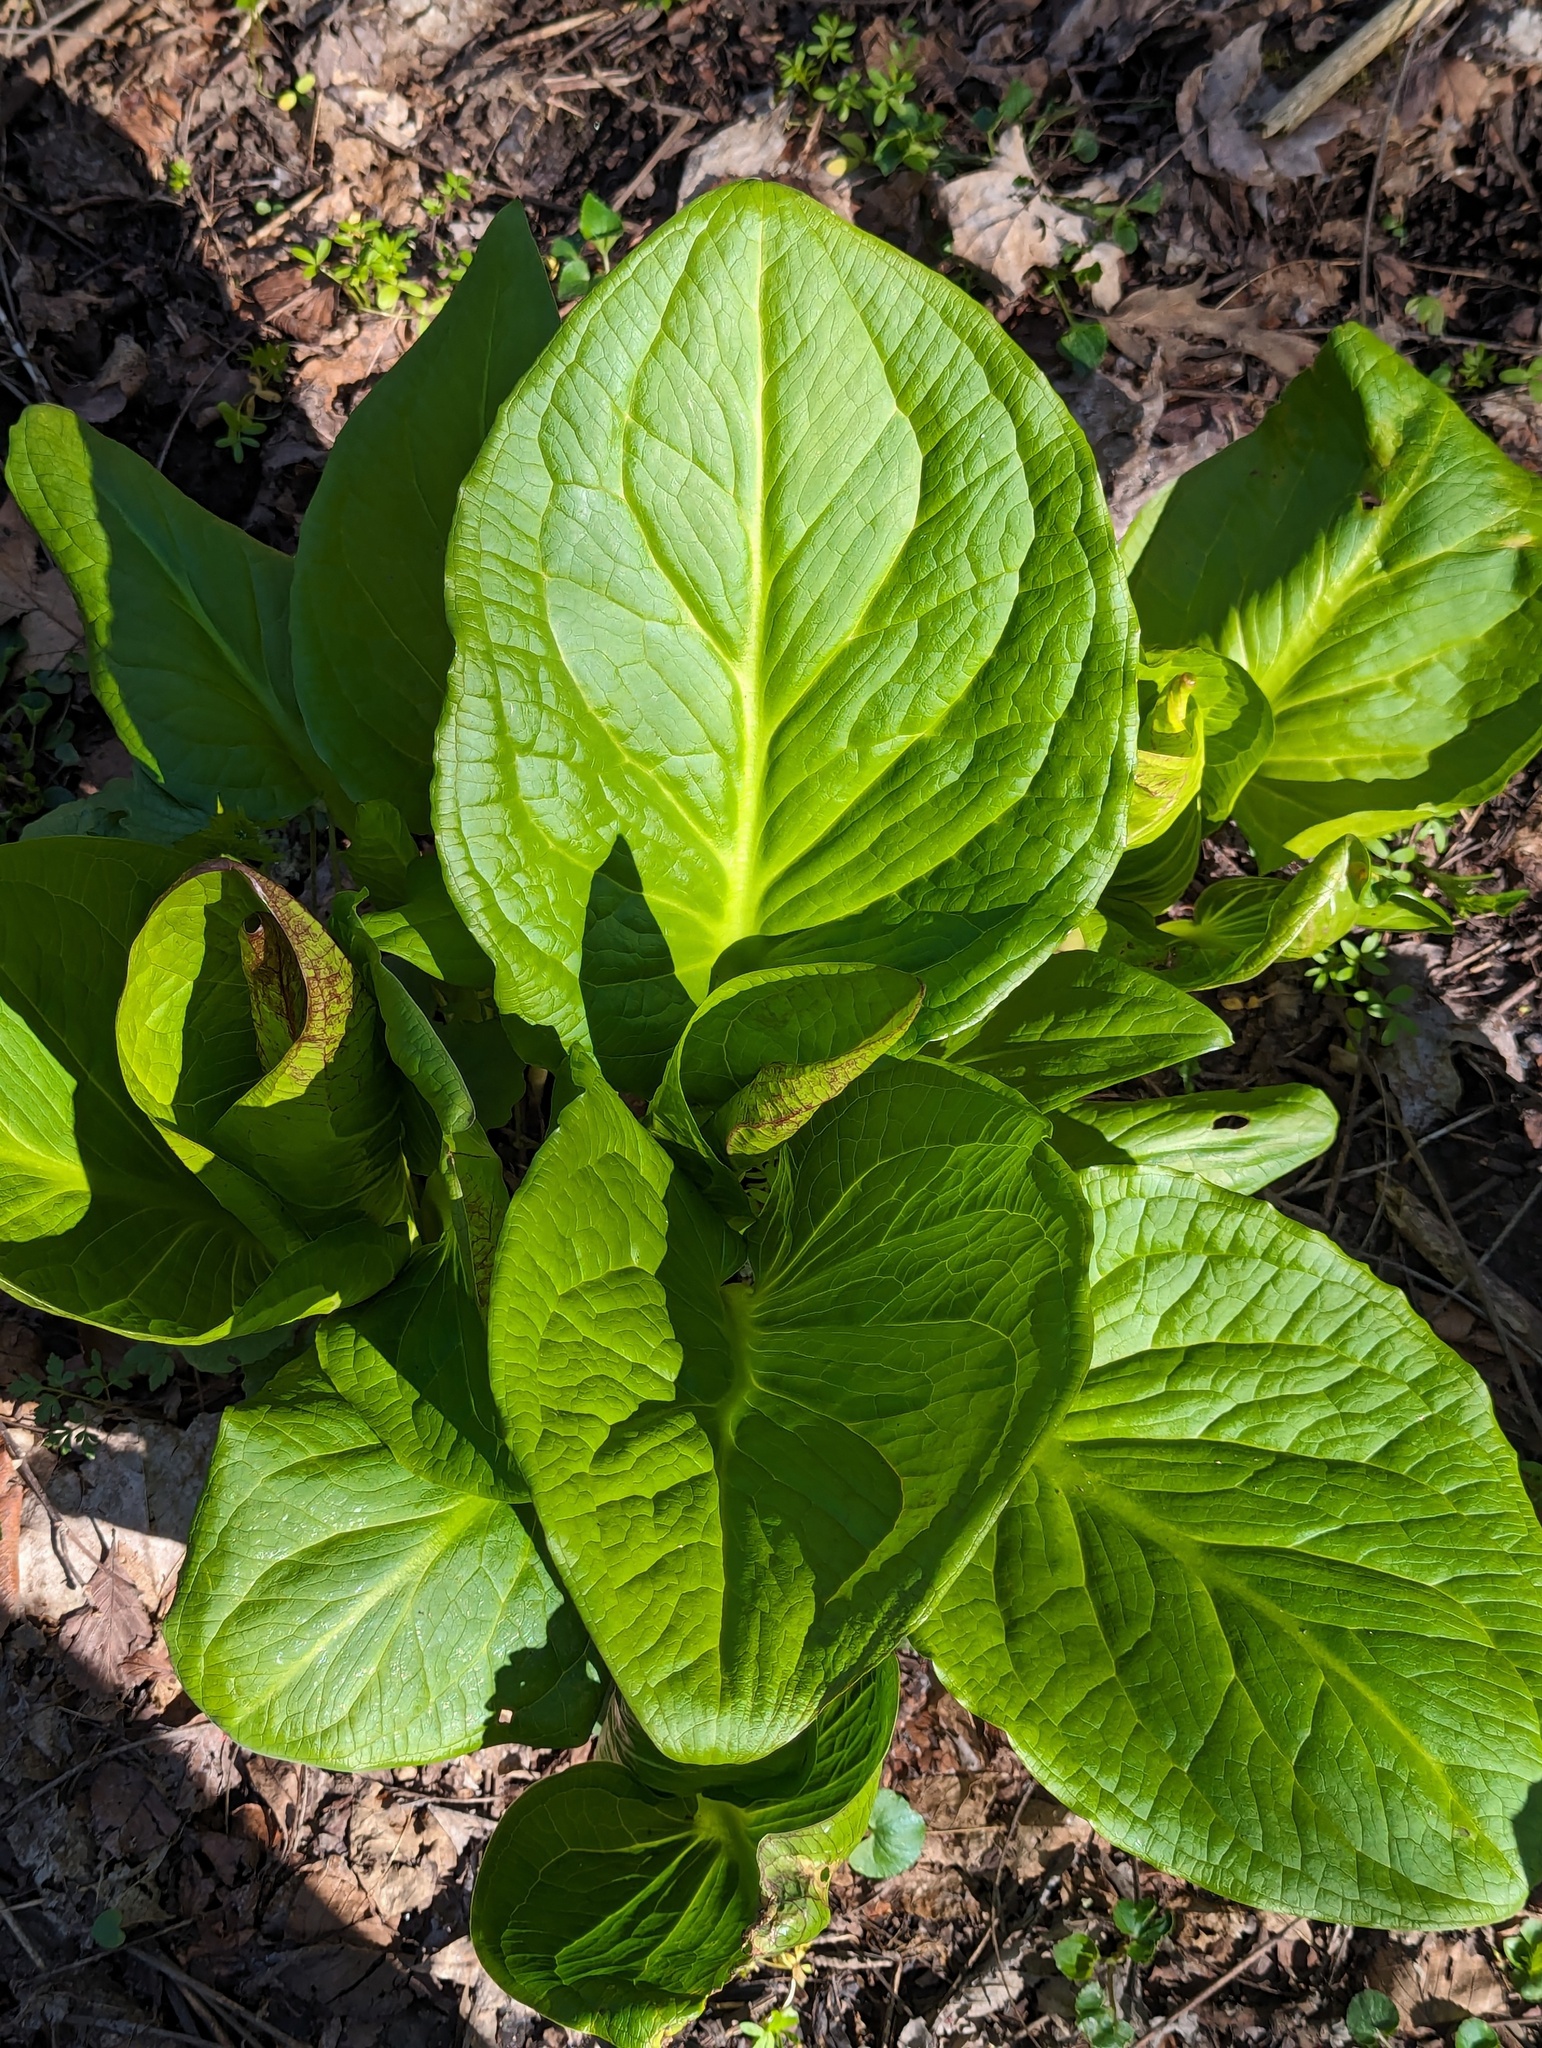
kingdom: Plantae
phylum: Tracheophyta
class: Liliopsida
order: Alismatales
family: Araceae
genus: Symplocarpus
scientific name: Symplocarpus foetidus
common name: Eastern skunk cabbage
